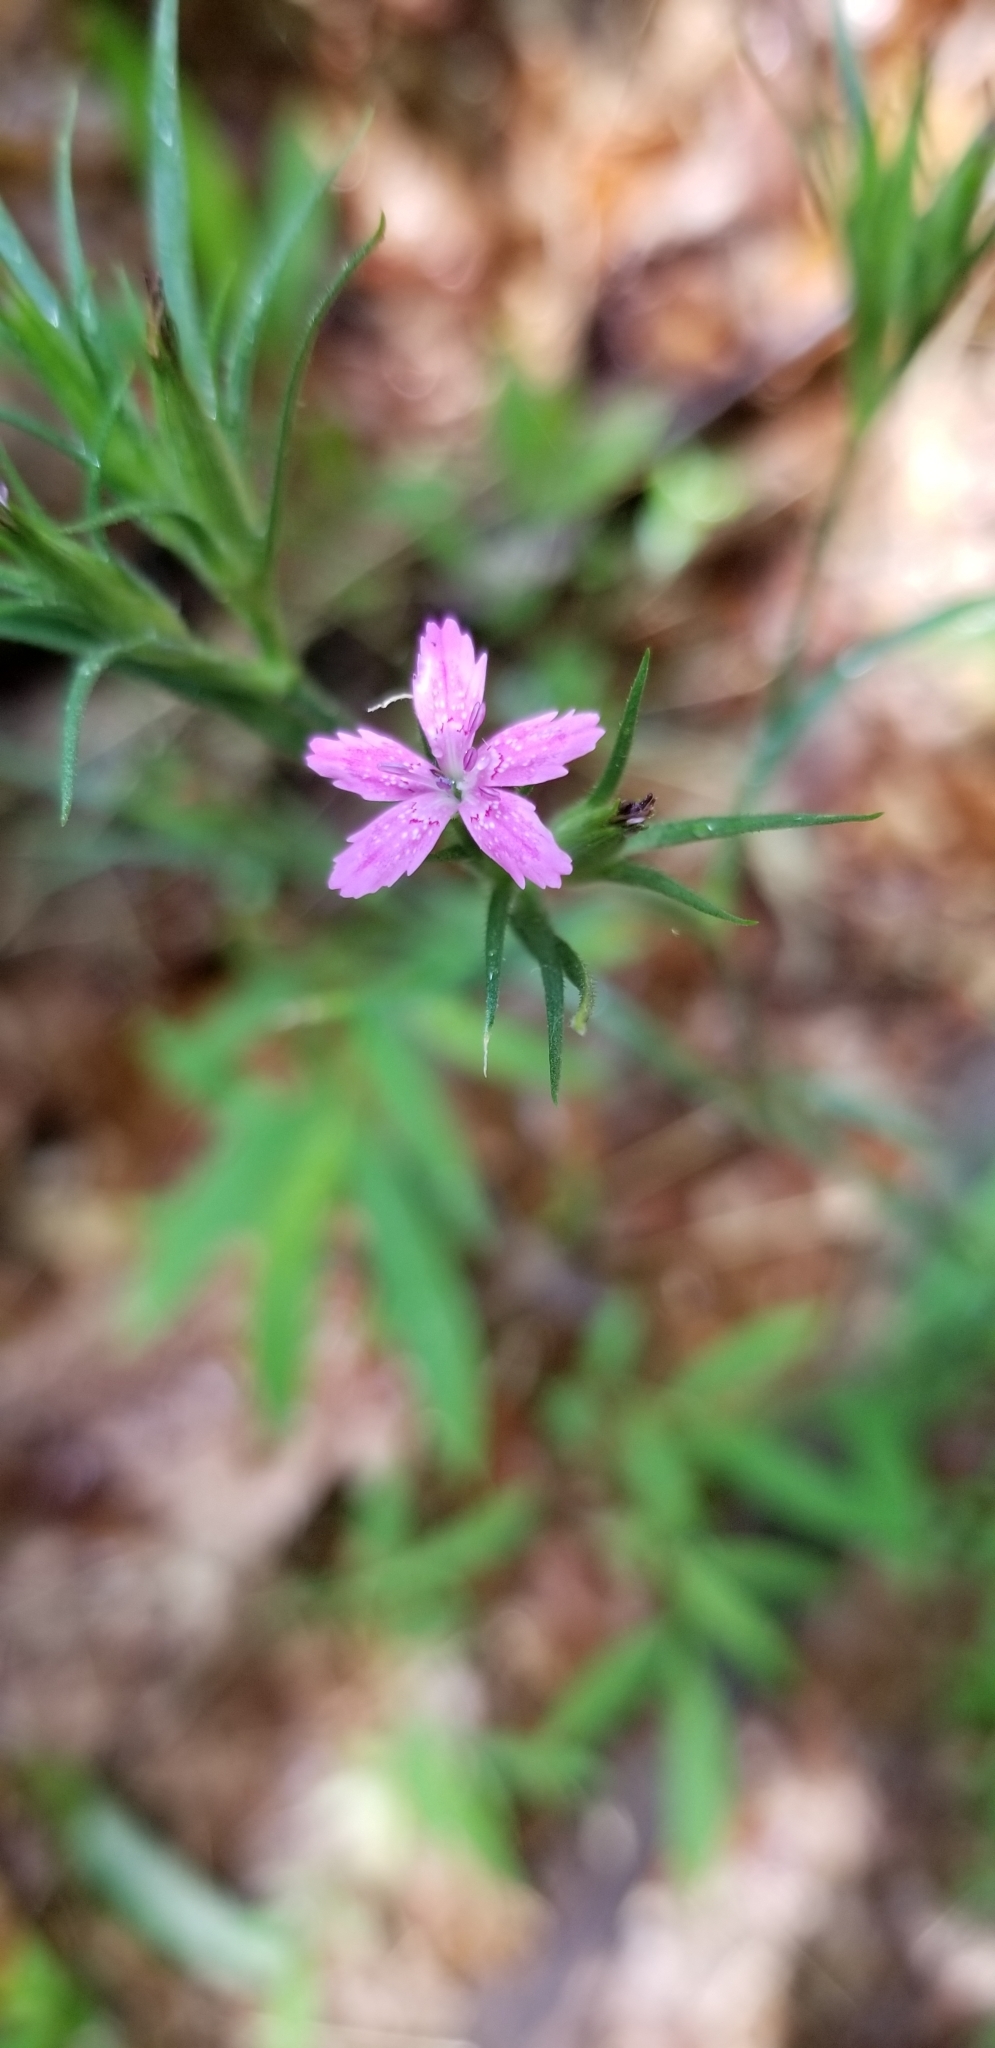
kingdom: Plantae
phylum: Tracheophyta
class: Magnoliopsida
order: Caryophyllales
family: Caryophyllaceae
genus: Dianthus
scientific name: Dianthus armeria
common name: Deptford pink
